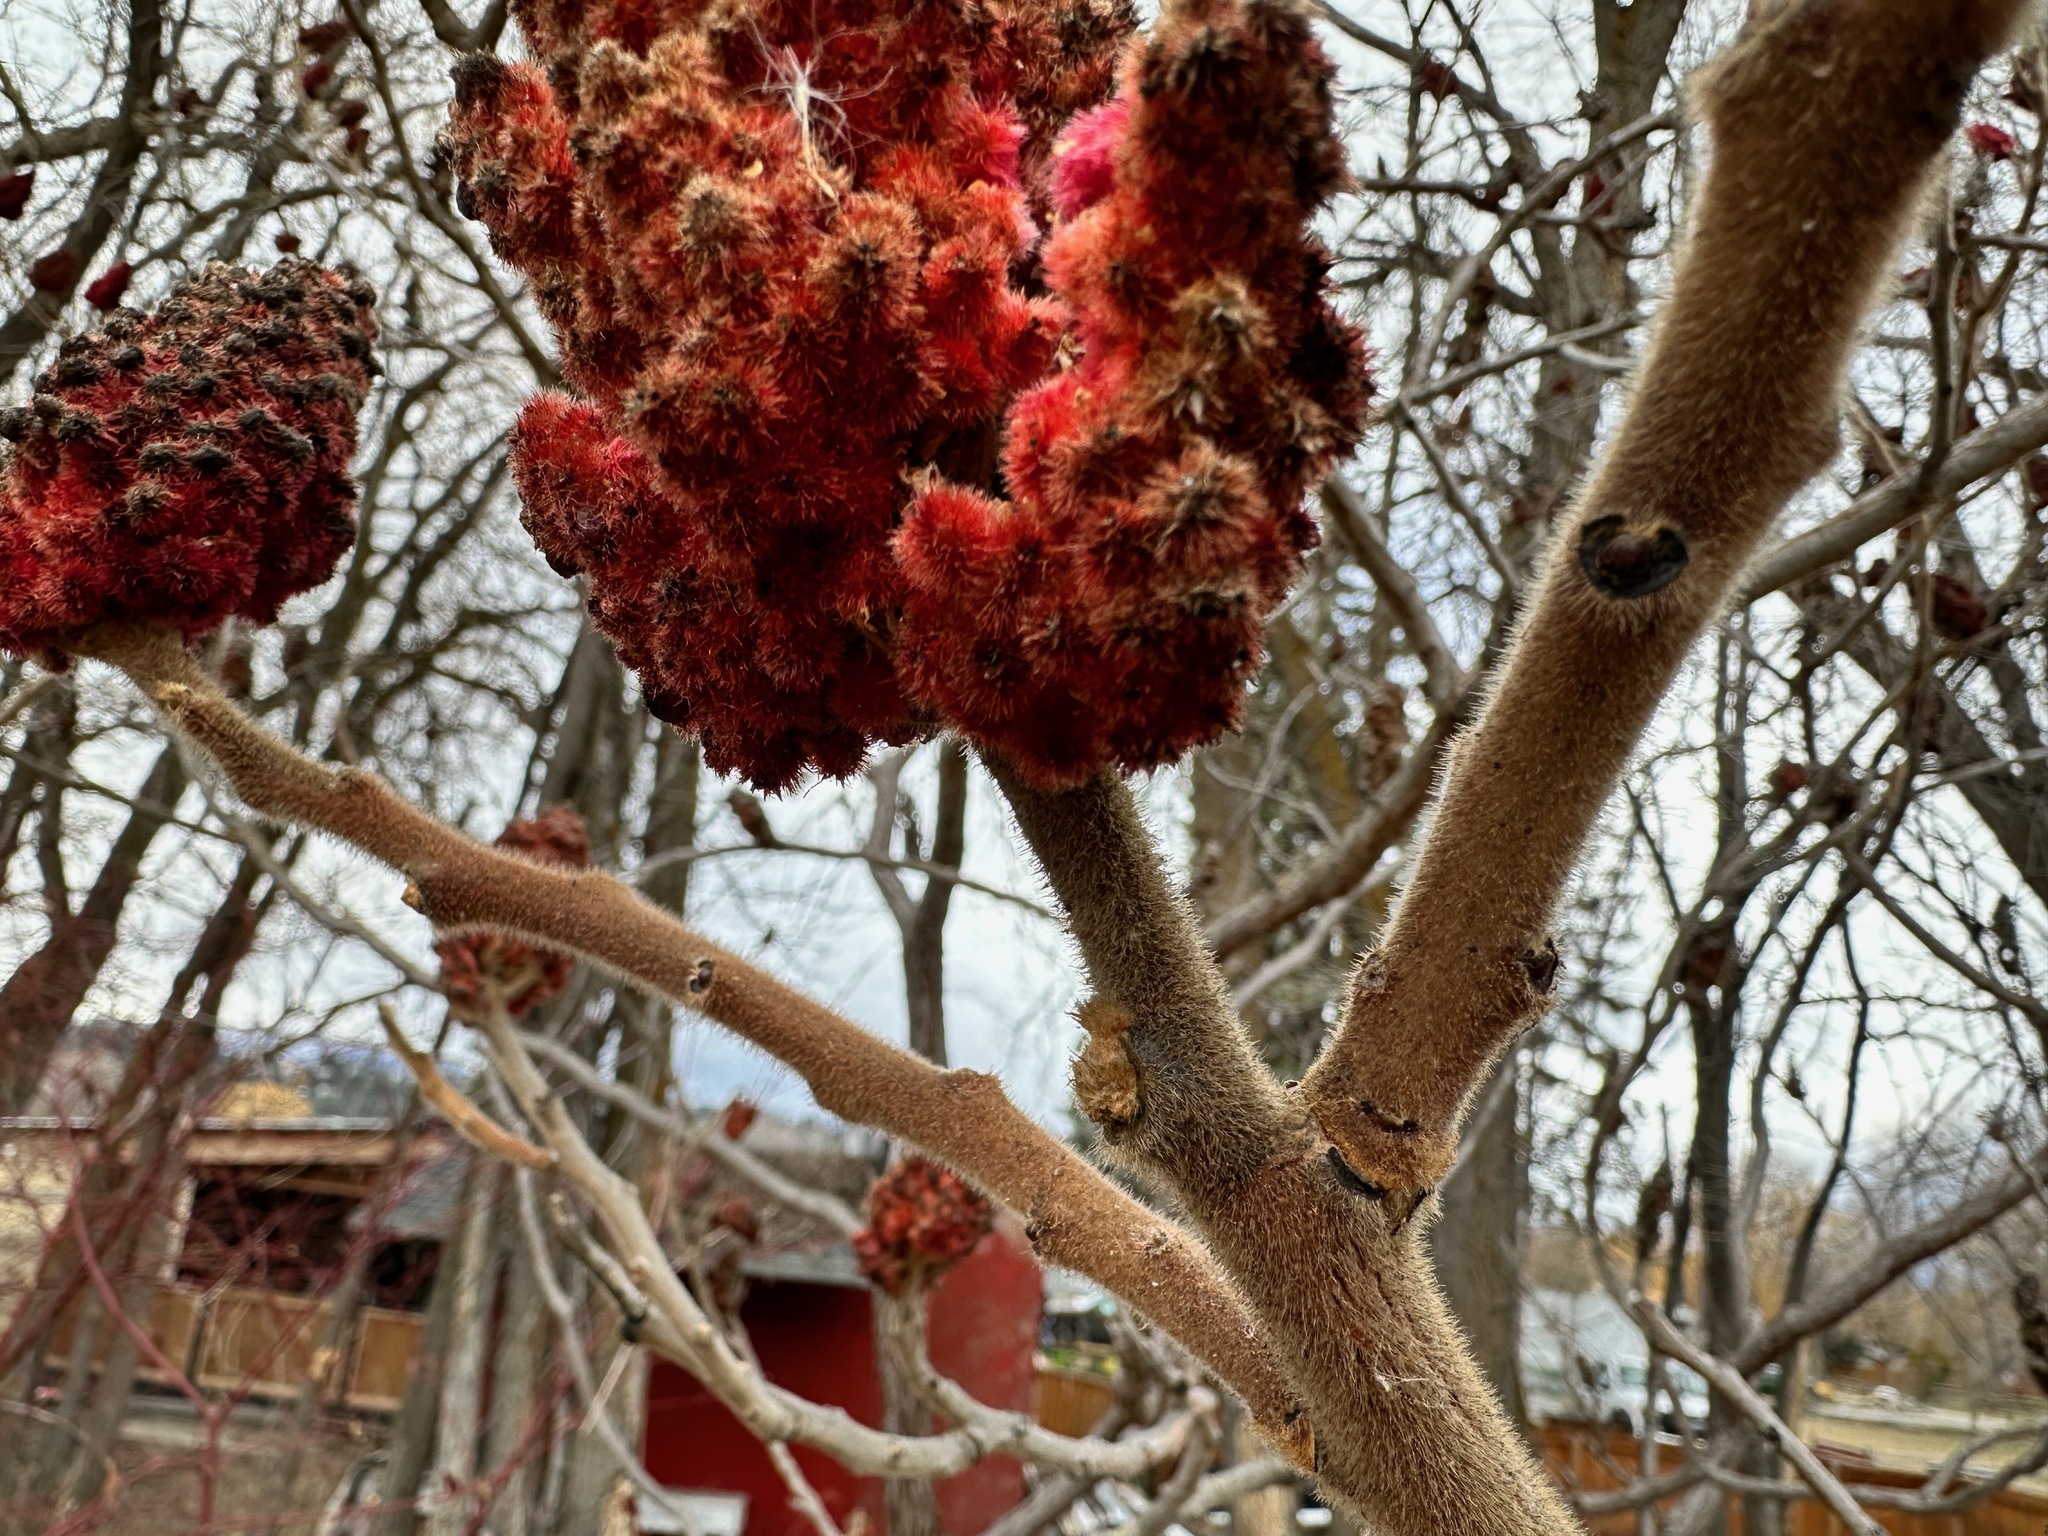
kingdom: Plantae
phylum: Tracheophyta
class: Magnoliopsida
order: Sapindales
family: Anacardiaceae
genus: Rhus
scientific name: Rhus typhina
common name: Staghorn sumac
